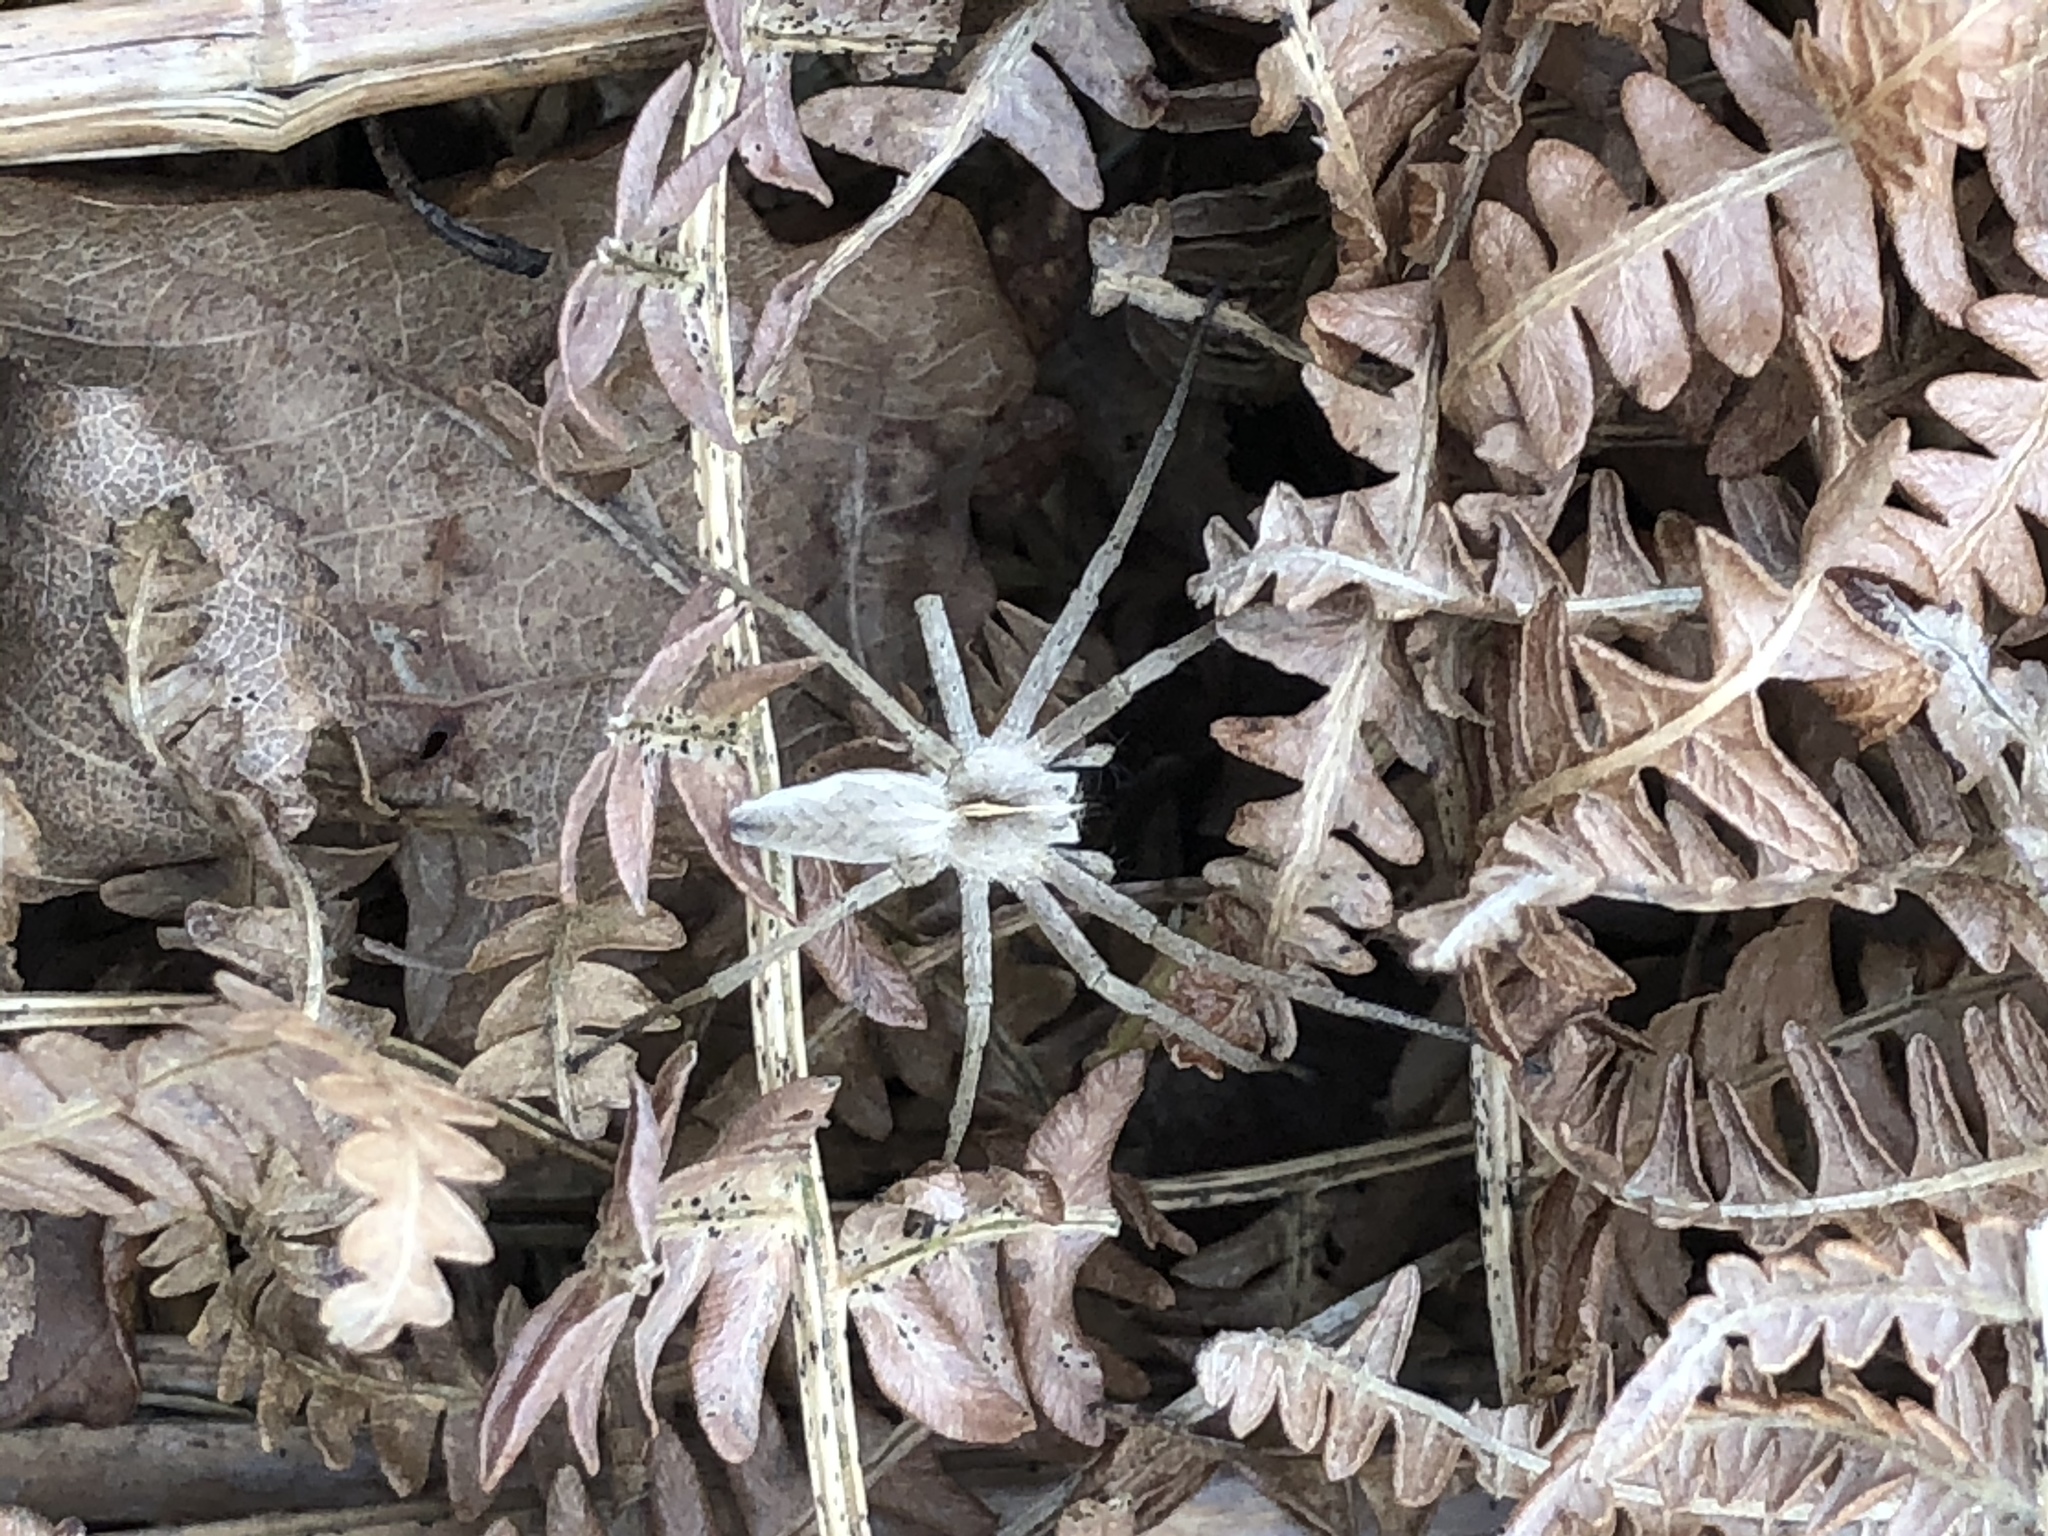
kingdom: Animalia
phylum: Arthropoda
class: Arachnida
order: Araneae
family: Pisauridae
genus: Pisaura
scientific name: Pisaura mirabilis
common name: Tent spider
